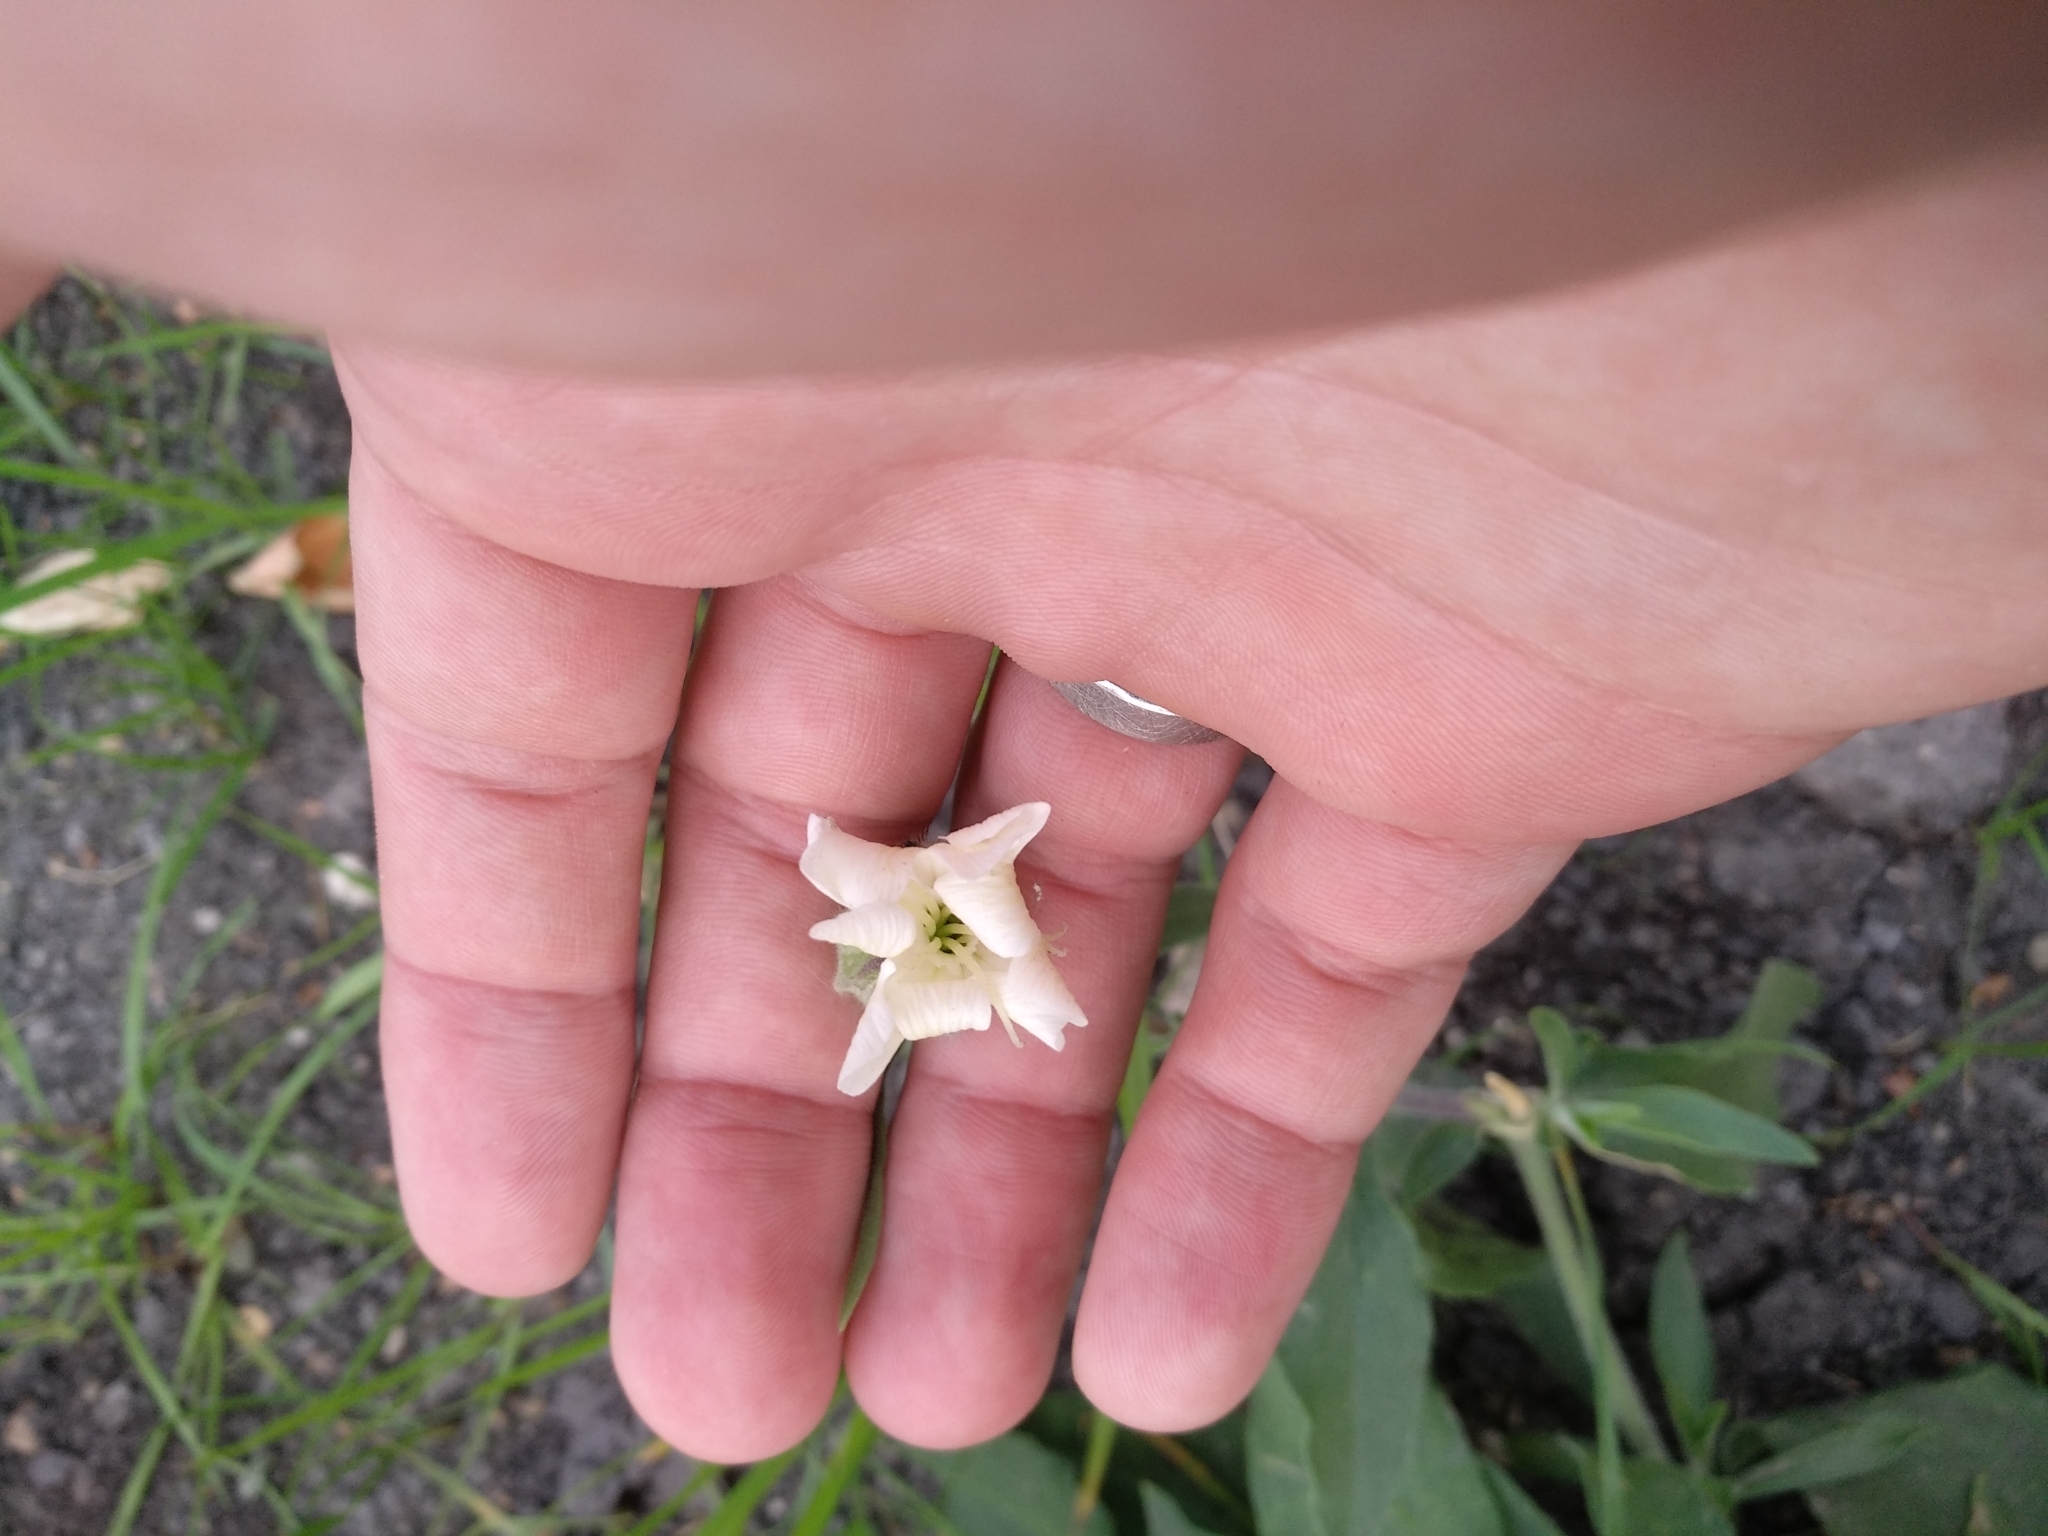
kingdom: Plantae
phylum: Tracheophyta
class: Magnoliopsida
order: Caryophyllales
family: Caryophyllaceae
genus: Silene
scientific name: Silene latifolia
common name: White campion
